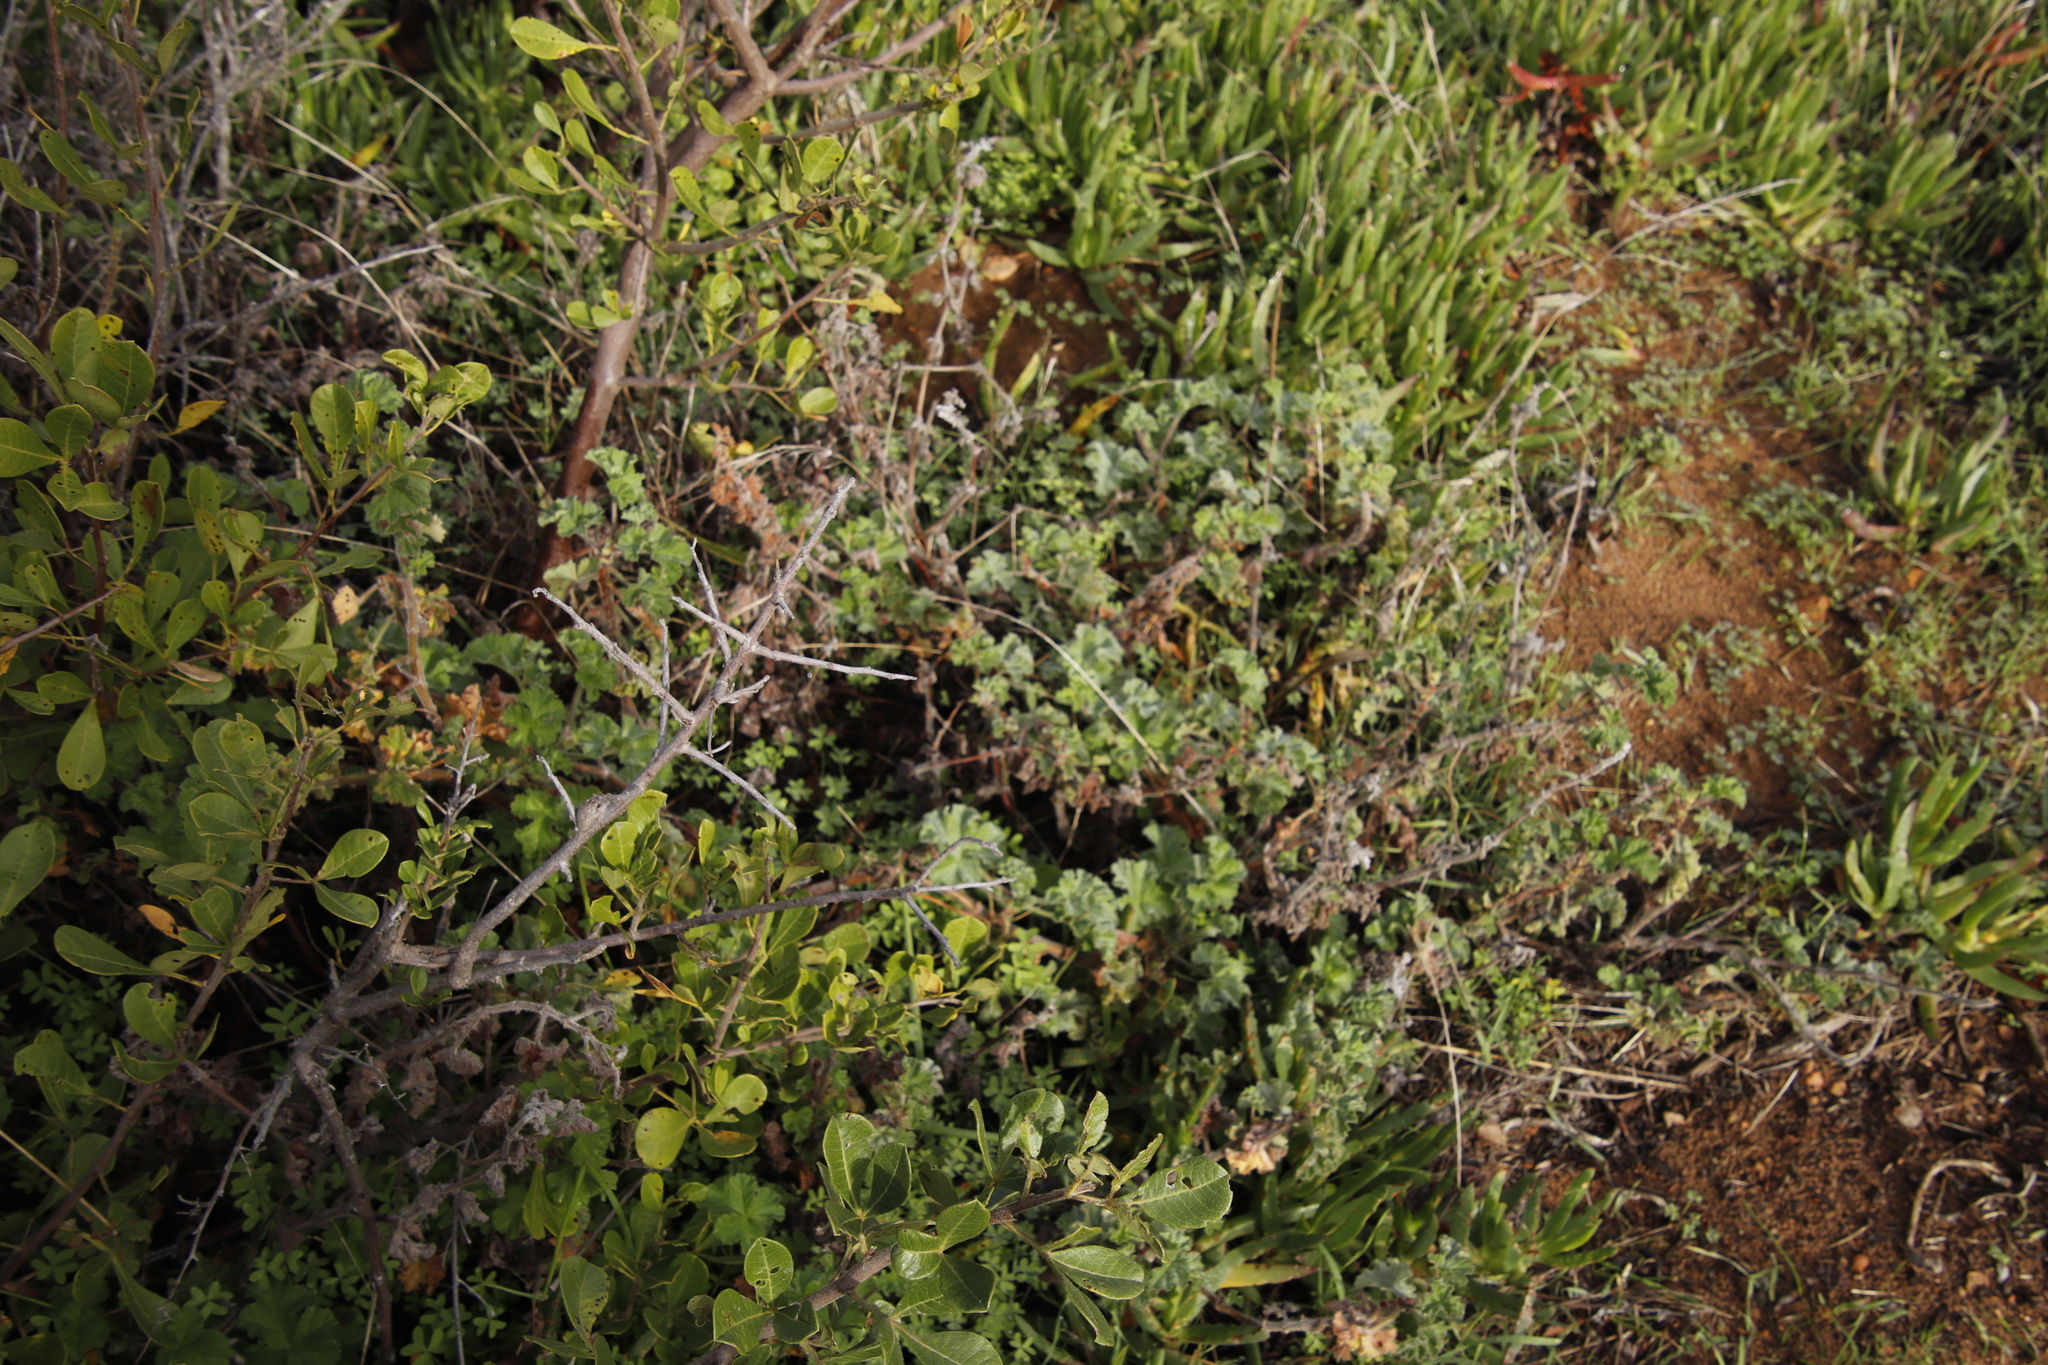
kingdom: Plantae
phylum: Tracheophyta
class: Magnoliopsida
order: Geraniales
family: Geraniaceae
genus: Pelargonium
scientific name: Pelargonium capitatum
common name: Rose scented geranium
